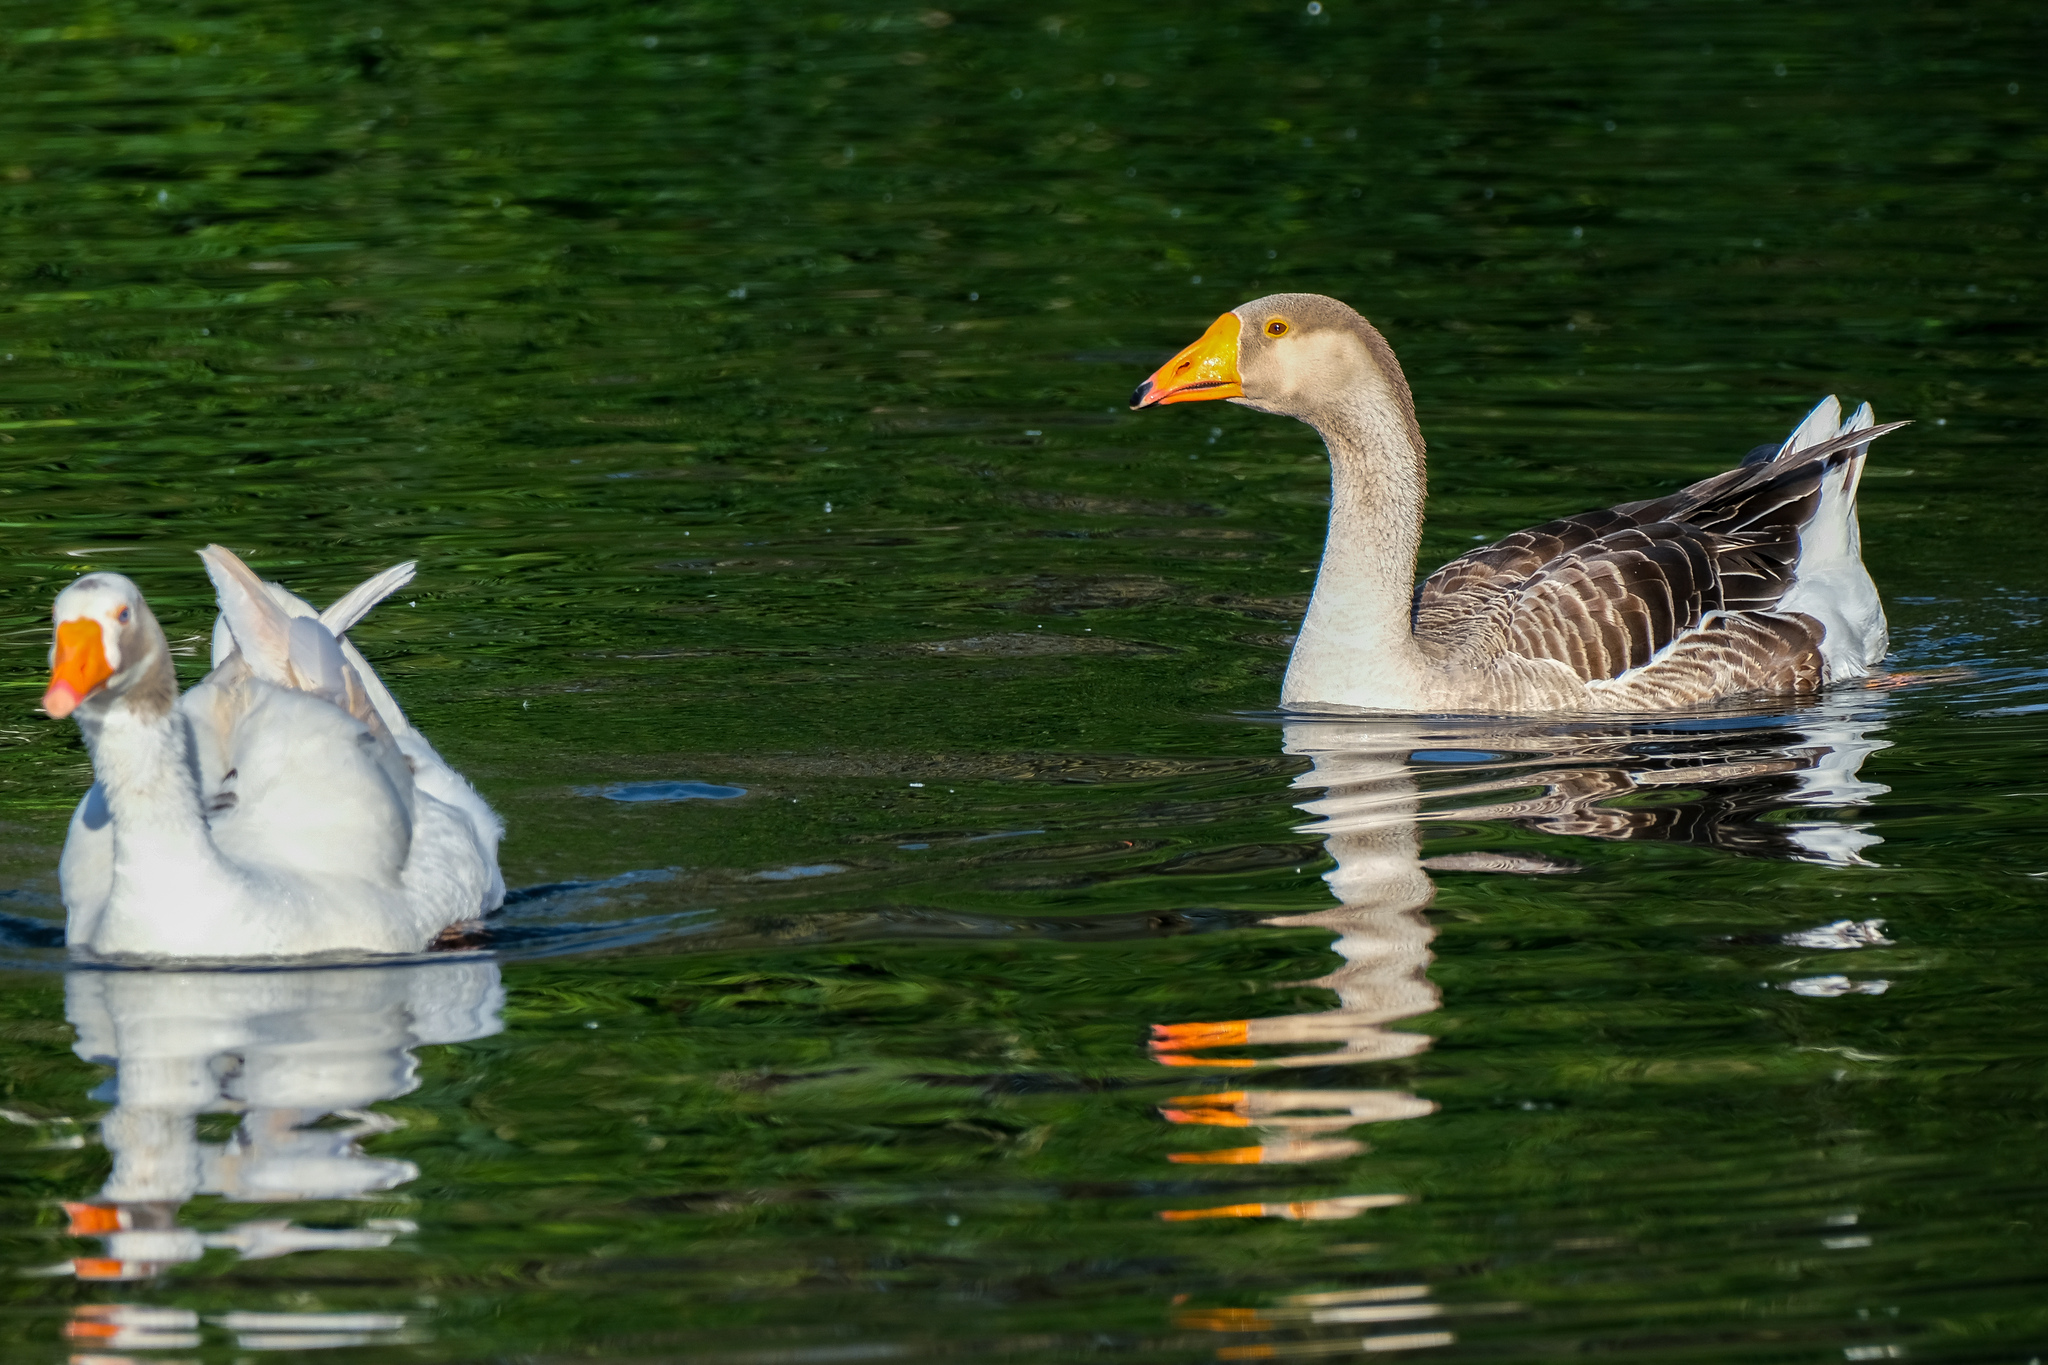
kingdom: Animalia
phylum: Chordata
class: Aves
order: Anseriformes
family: Anatidae
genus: Anser
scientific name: Anser
